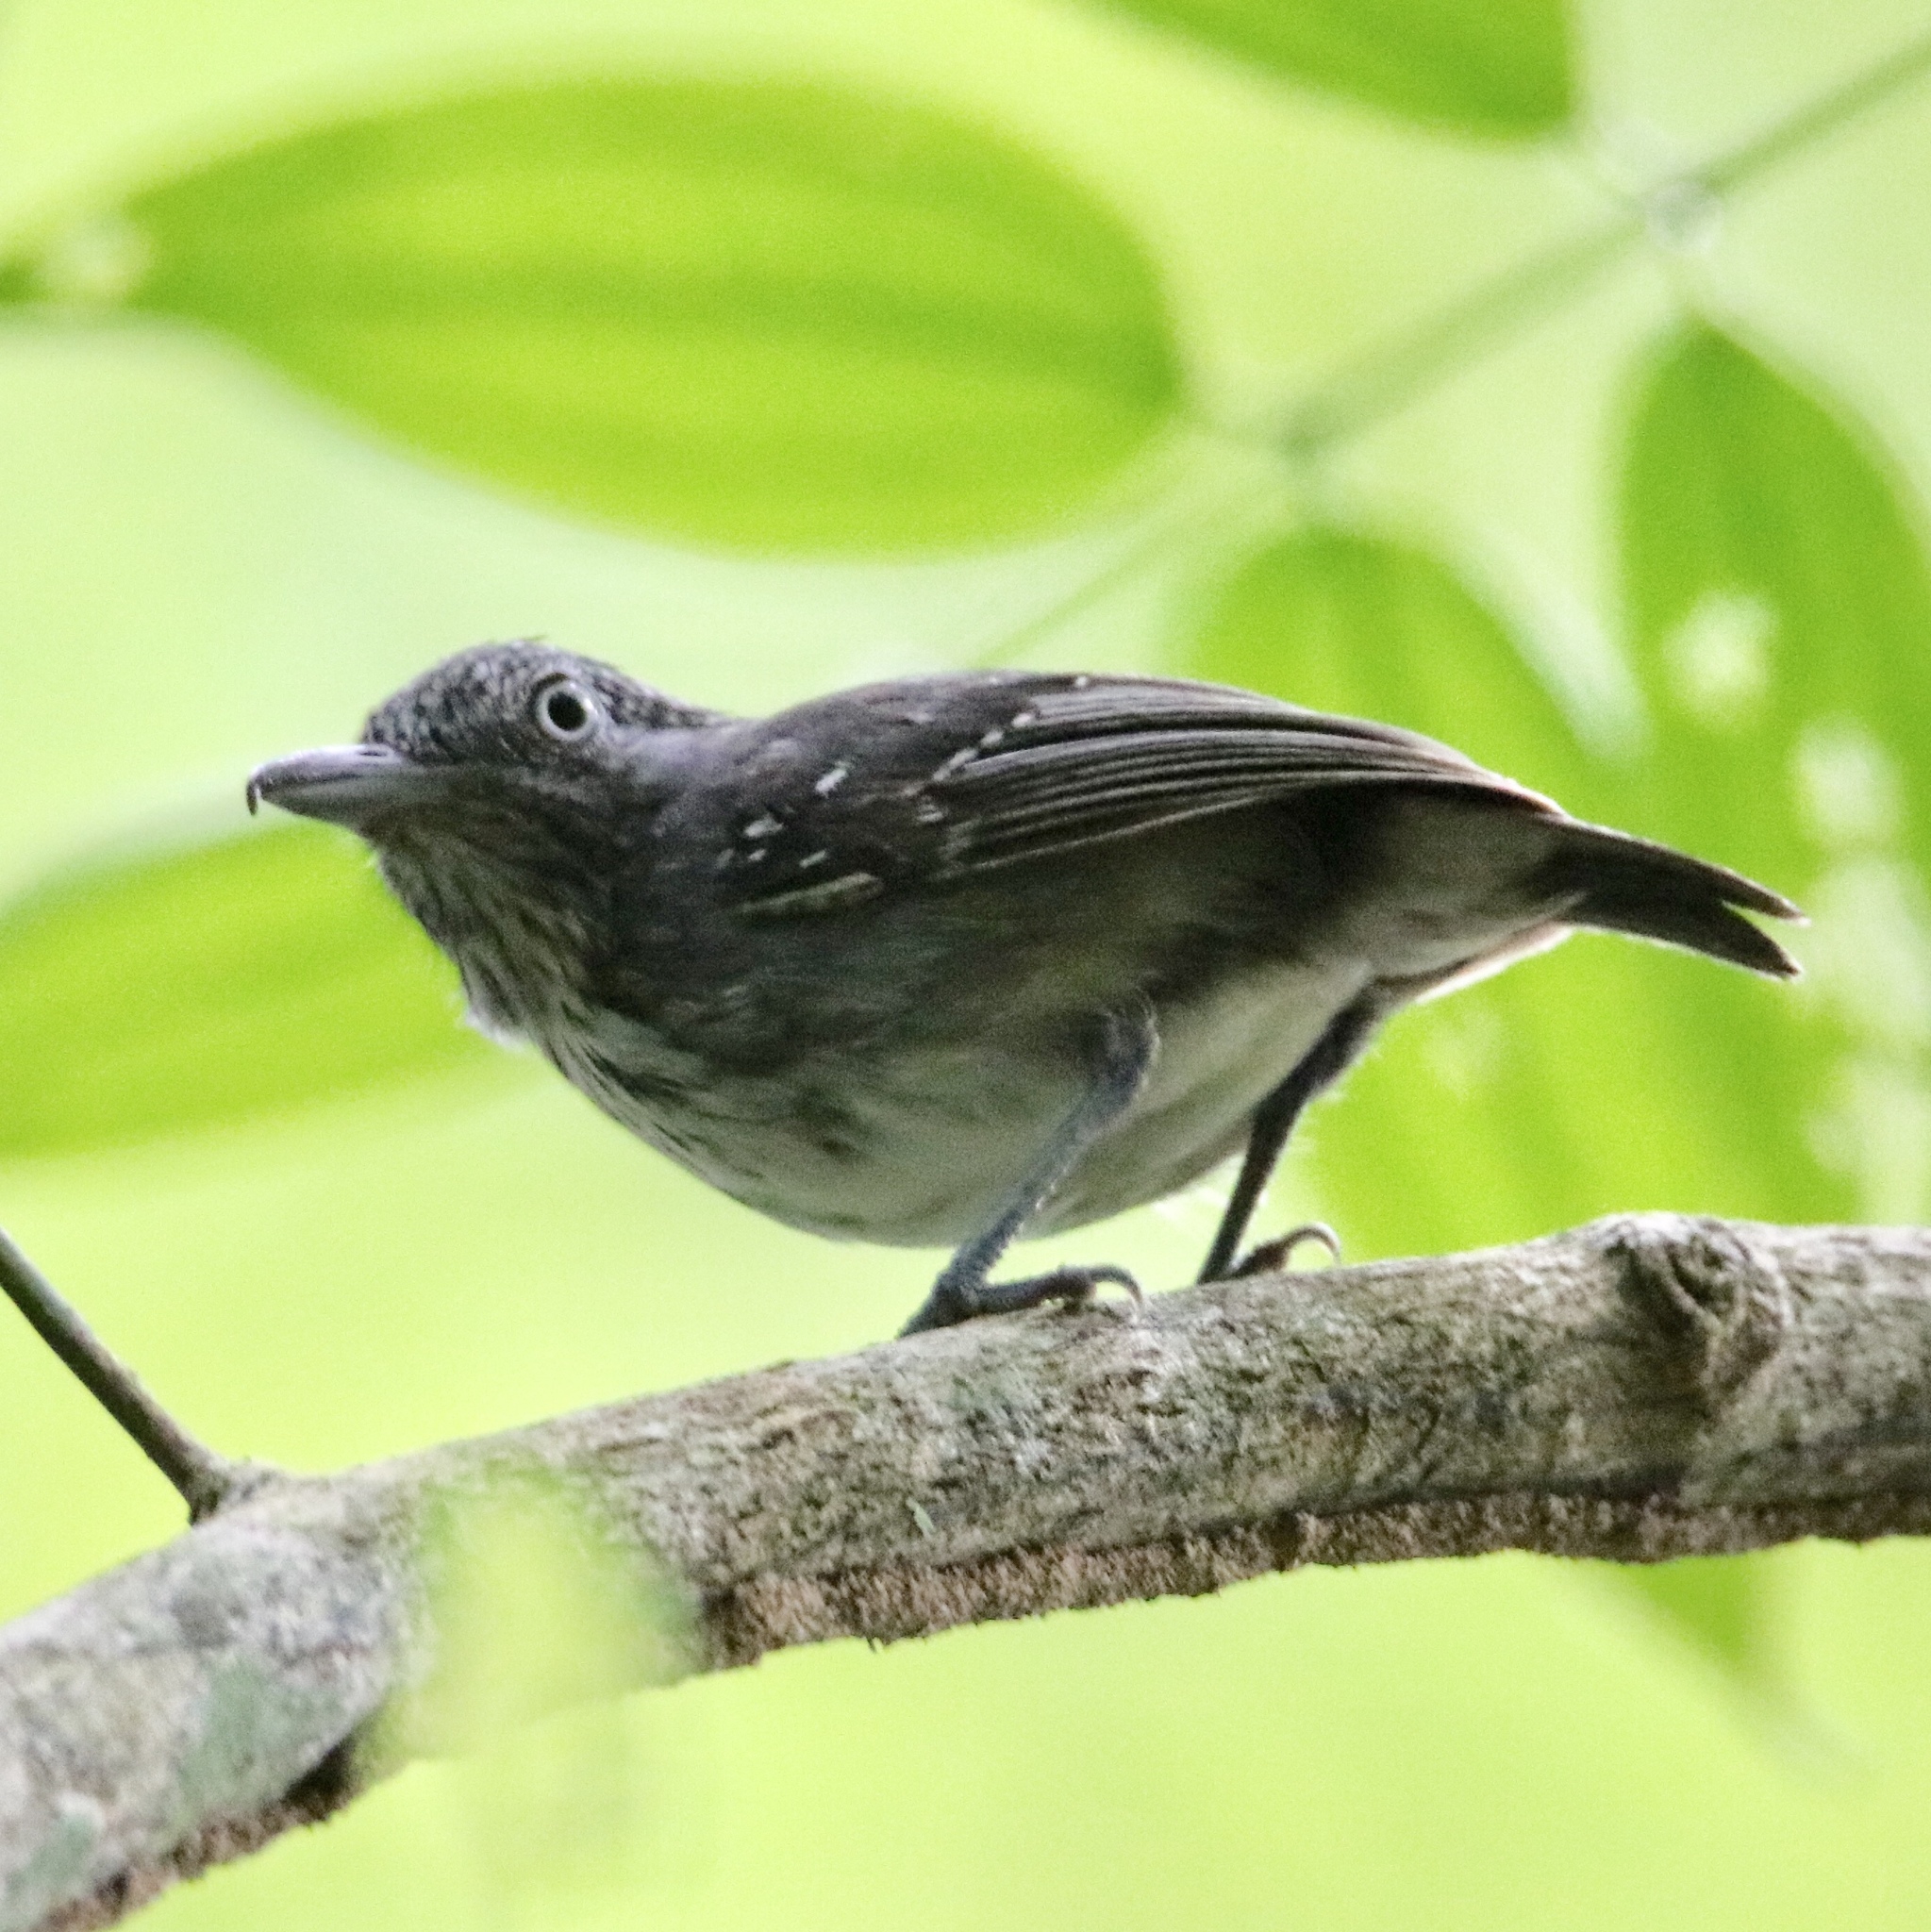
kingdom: Animalia
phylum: Chordata
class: Aves
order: Passeriformes
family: Thamnophilidae
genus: Dysithamnus
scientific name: Dysithamnus puncticeps
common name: Spot-crowned antvireo
